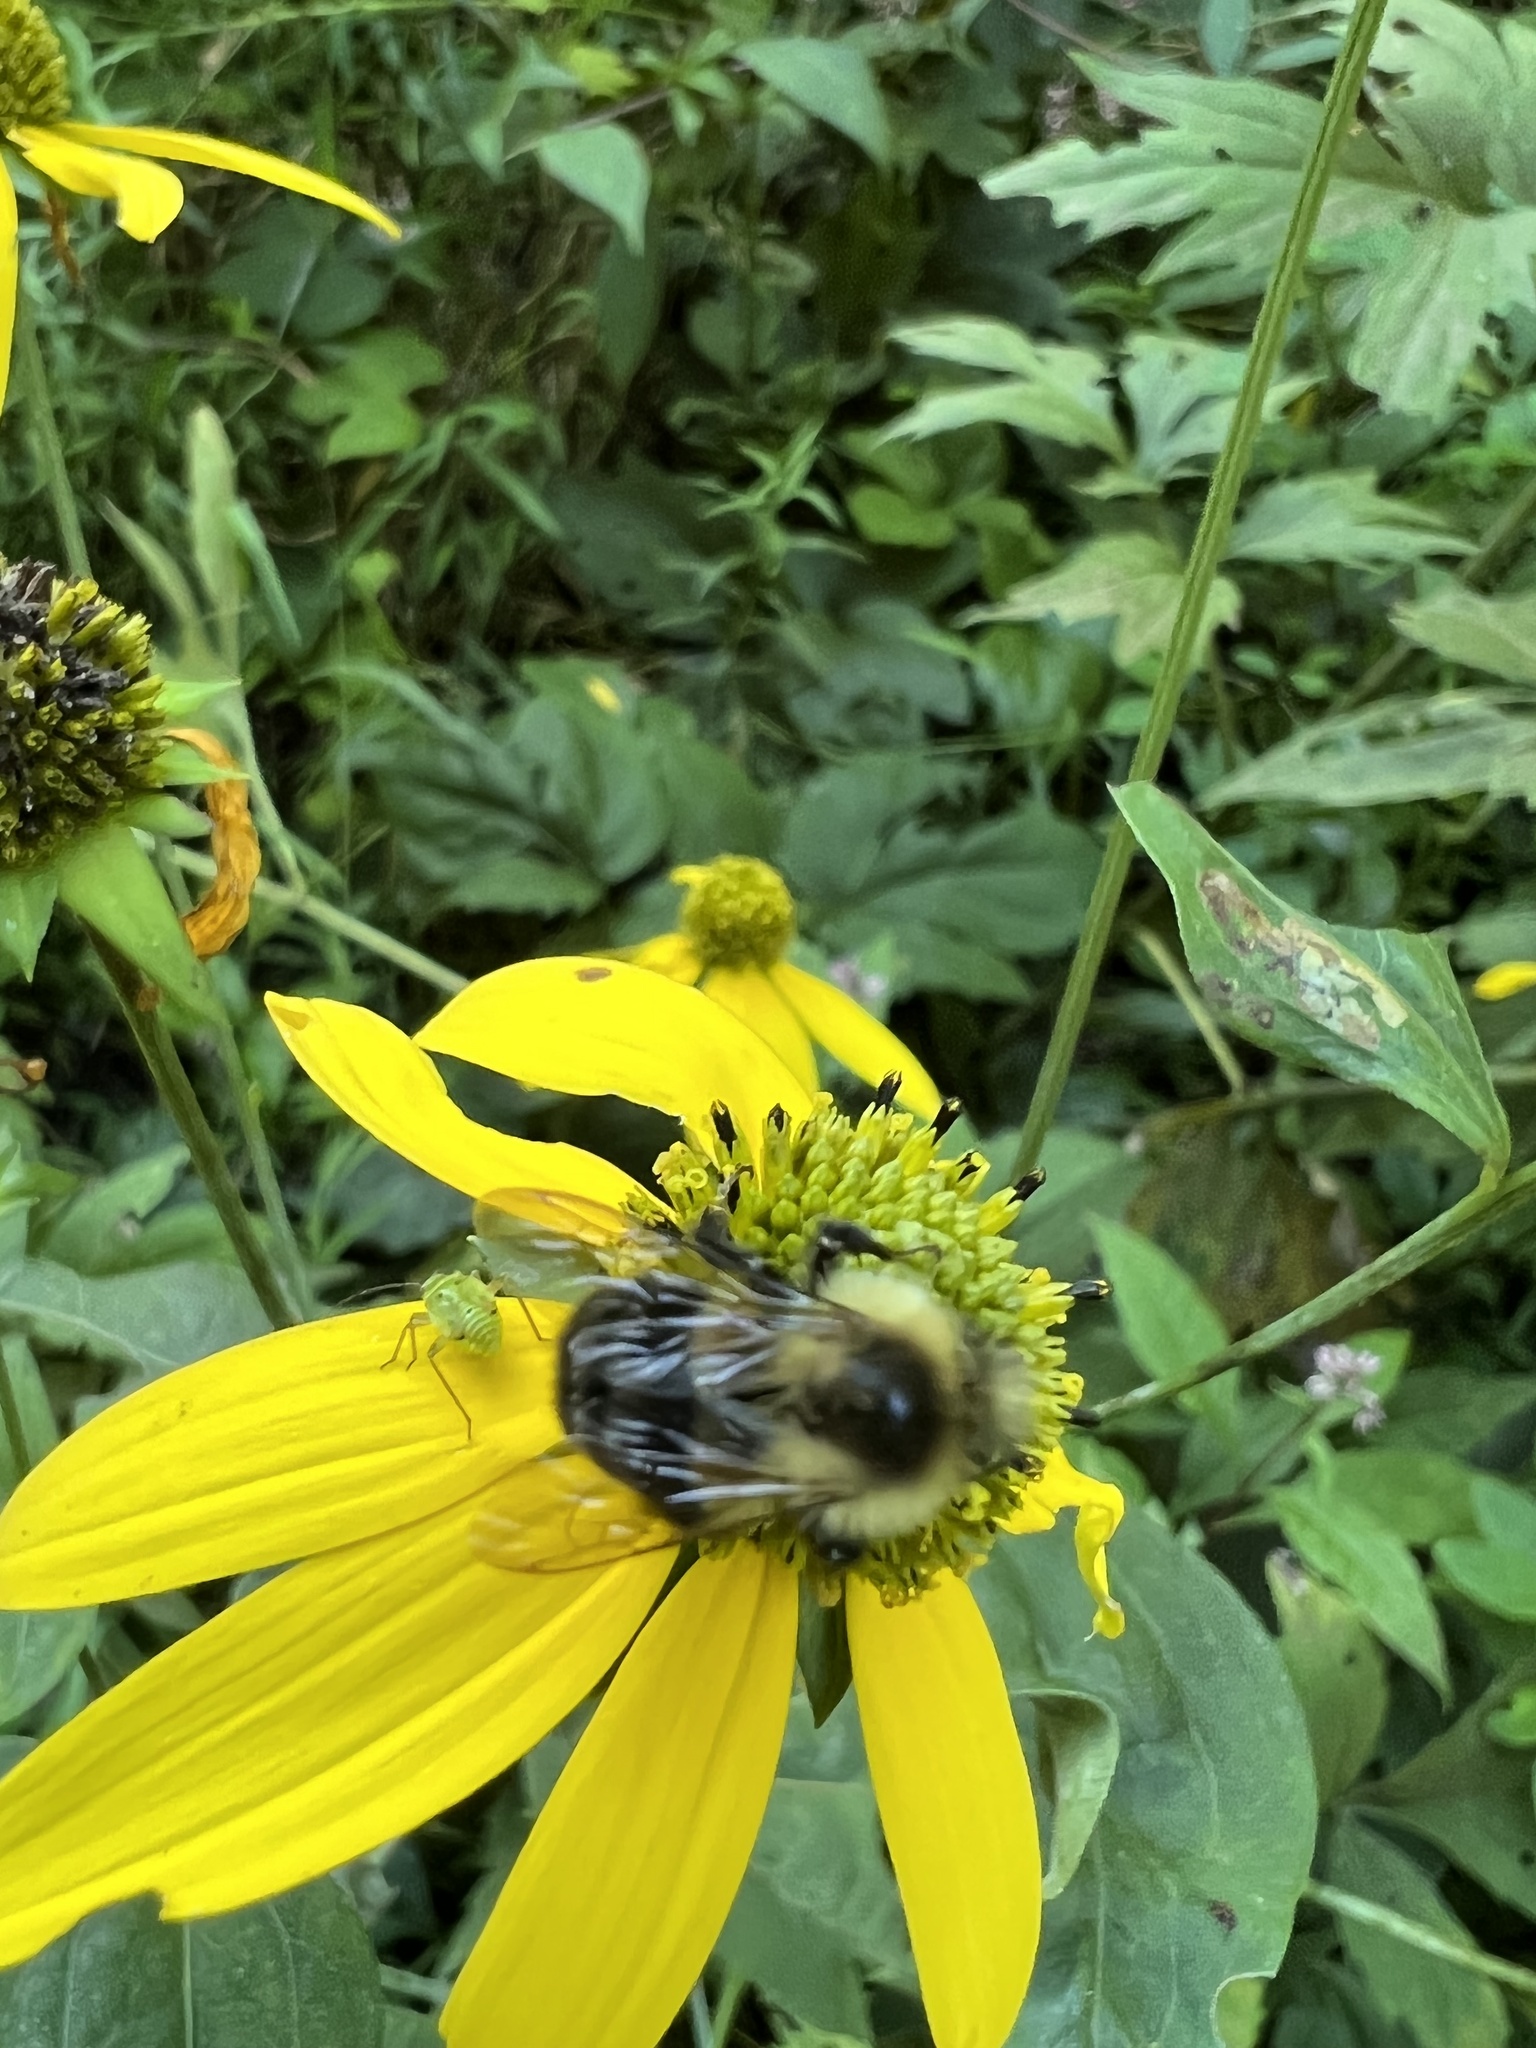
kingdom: Animalia
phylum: Arthropoda
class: Insecta
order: Hymenoptera
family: Apidae
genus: Bombus
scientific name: Bombus impatiens
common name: Common eastern bumble bee
